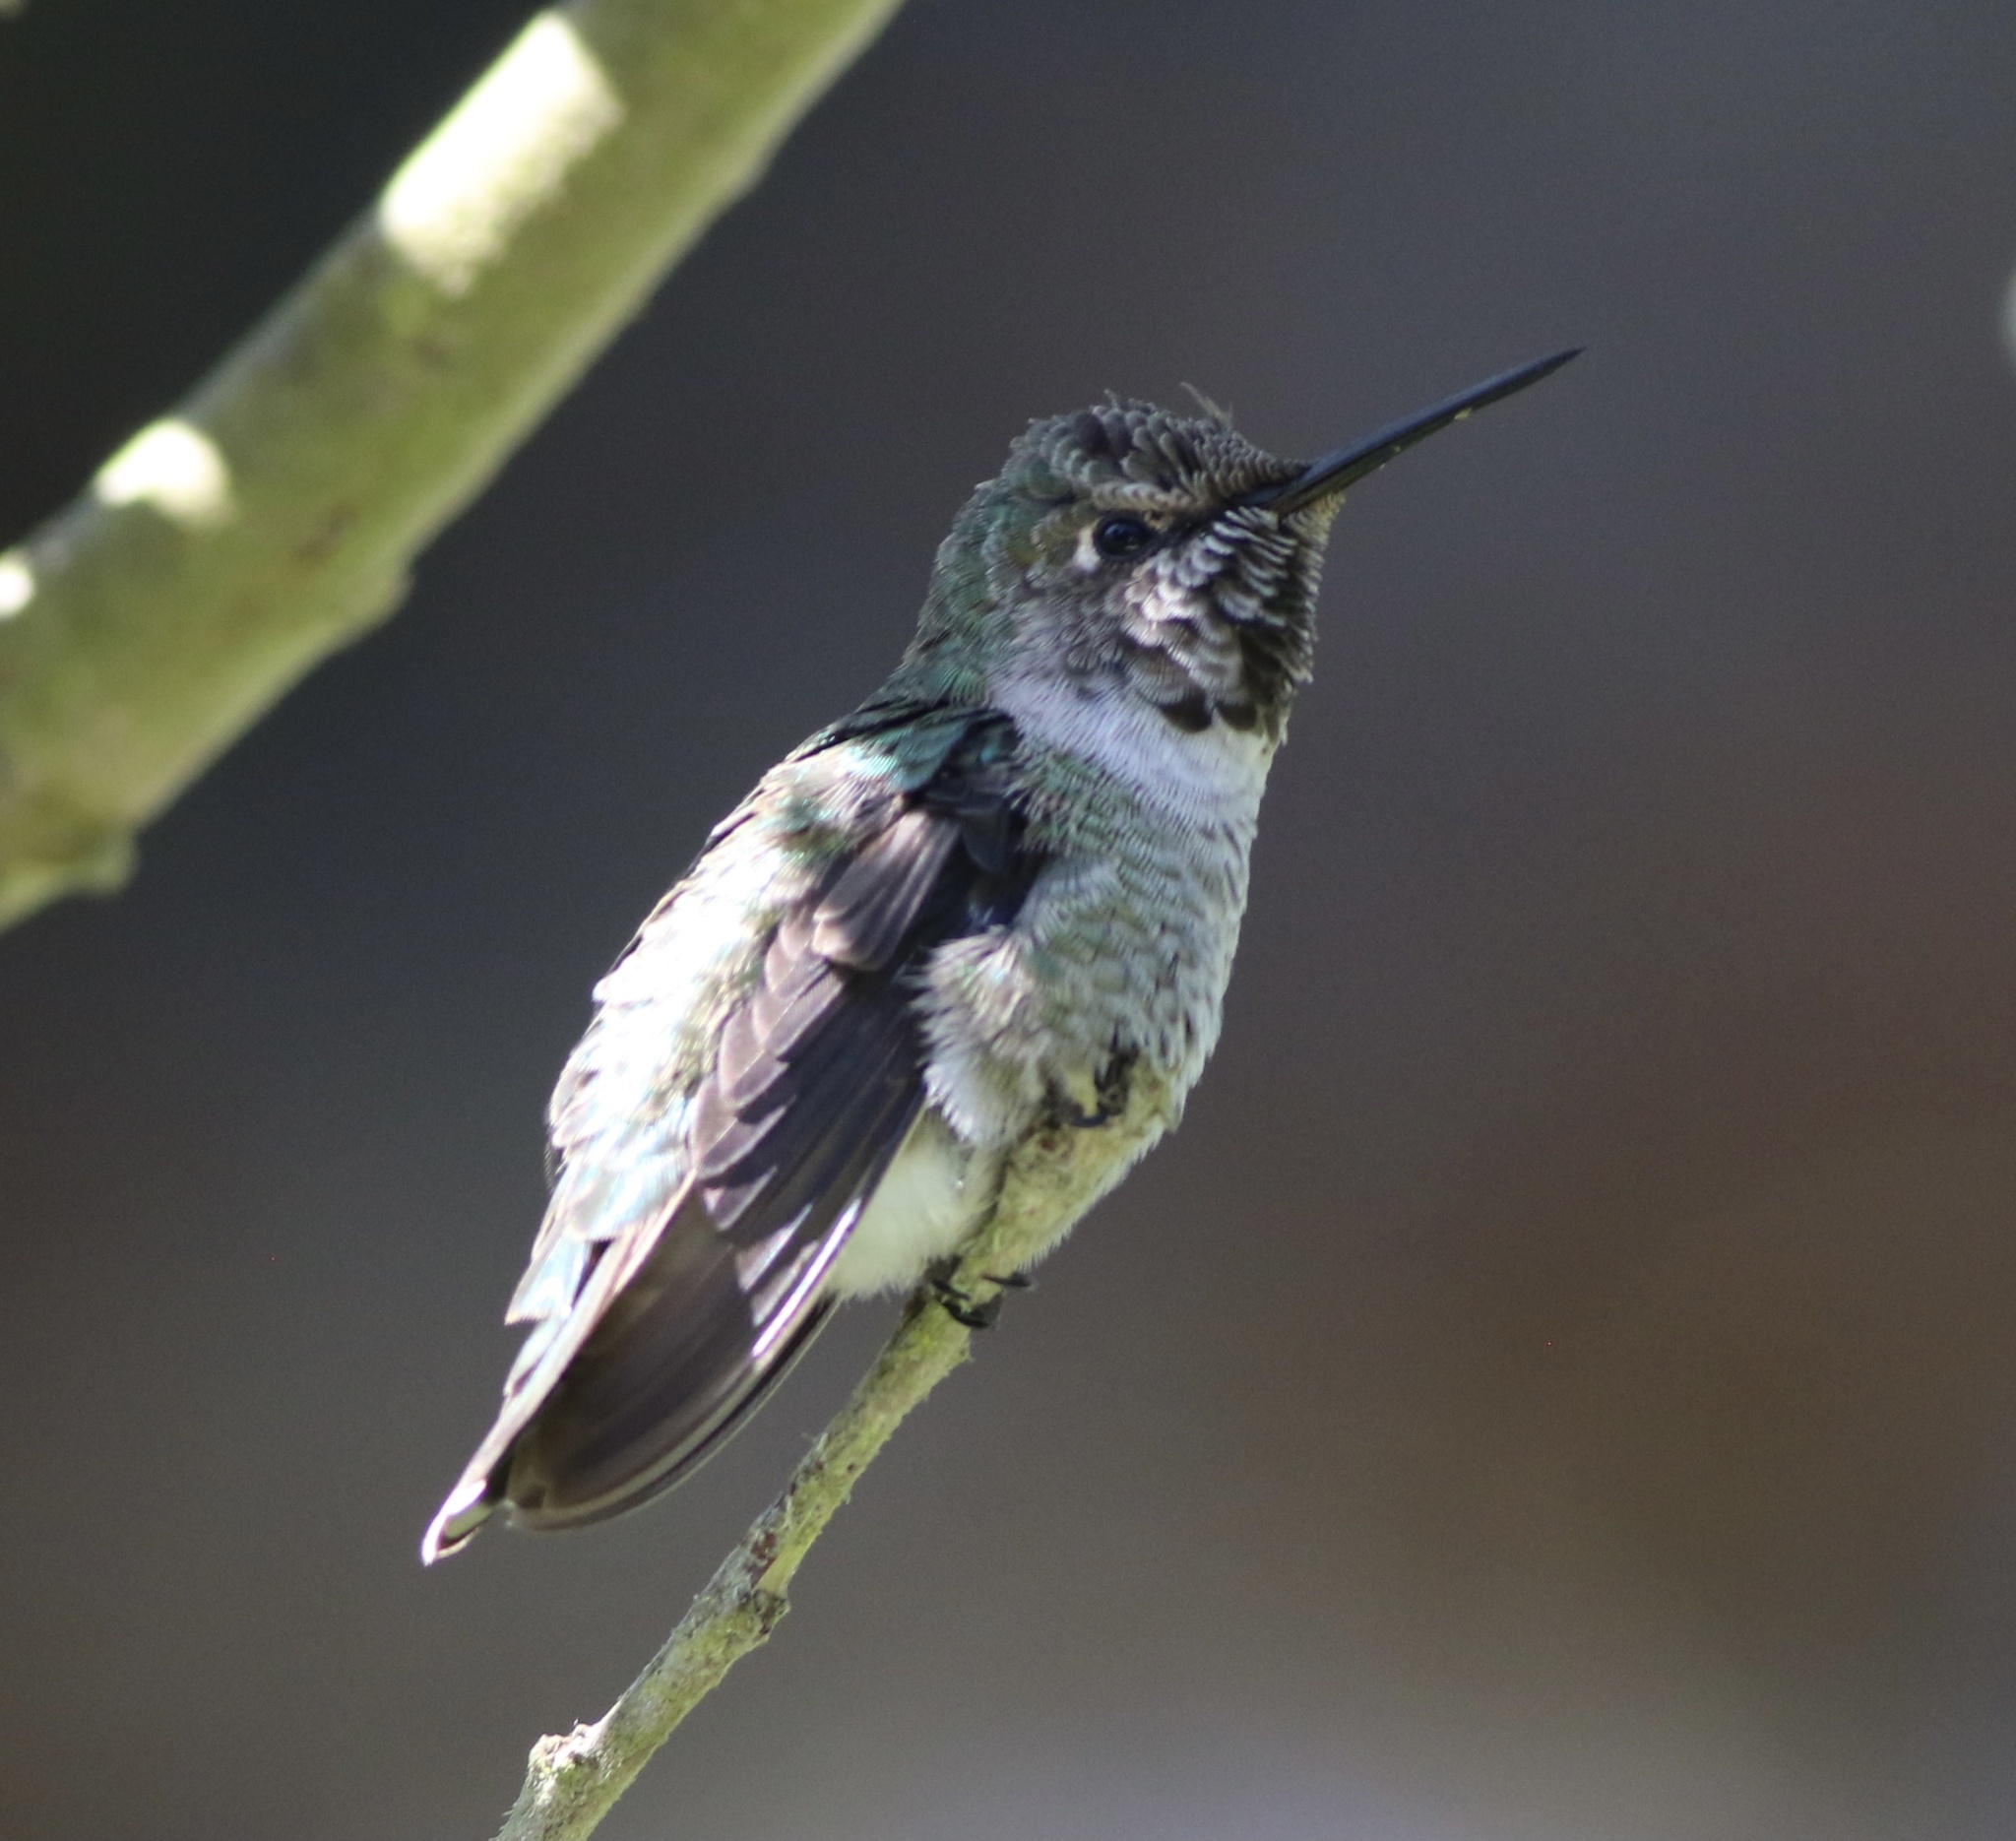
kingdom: Animalia
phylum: Chordata
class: Aves
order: Apodiformes
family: Trochilidae
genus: Calypte
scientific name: Calypte anna
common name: Anna's hummingbird
